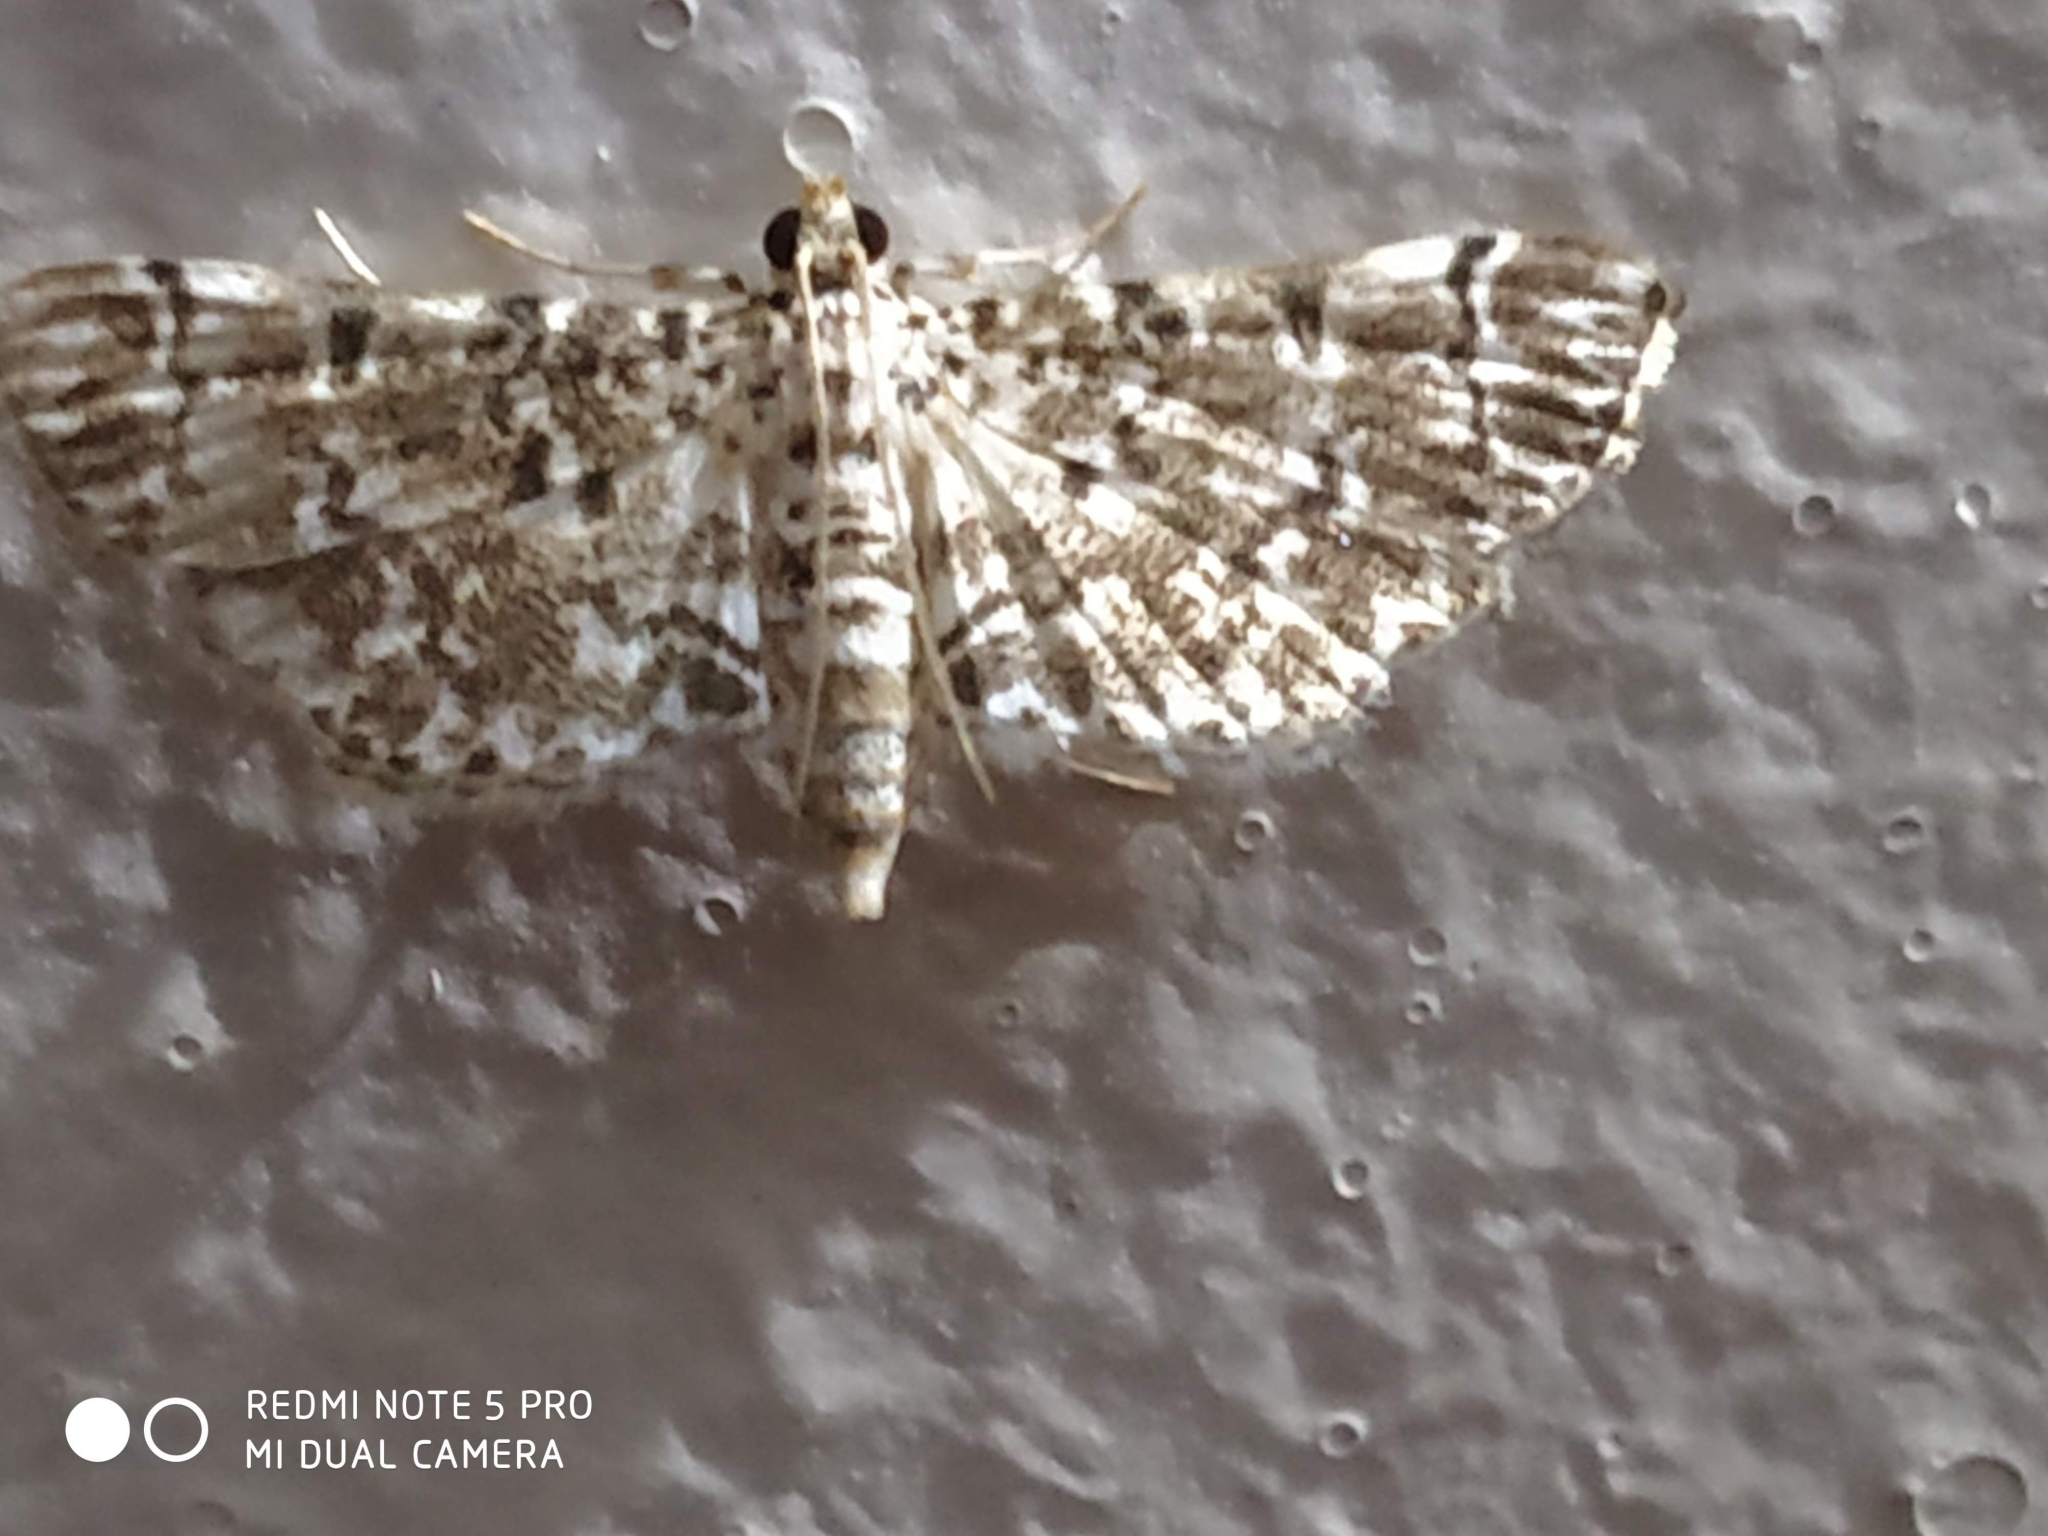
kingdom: Animalia
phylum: Arthropoda
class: Insecta
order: Lepidoptera
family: Crambidae
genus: Metoeca
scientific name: Metoeca foedalis
